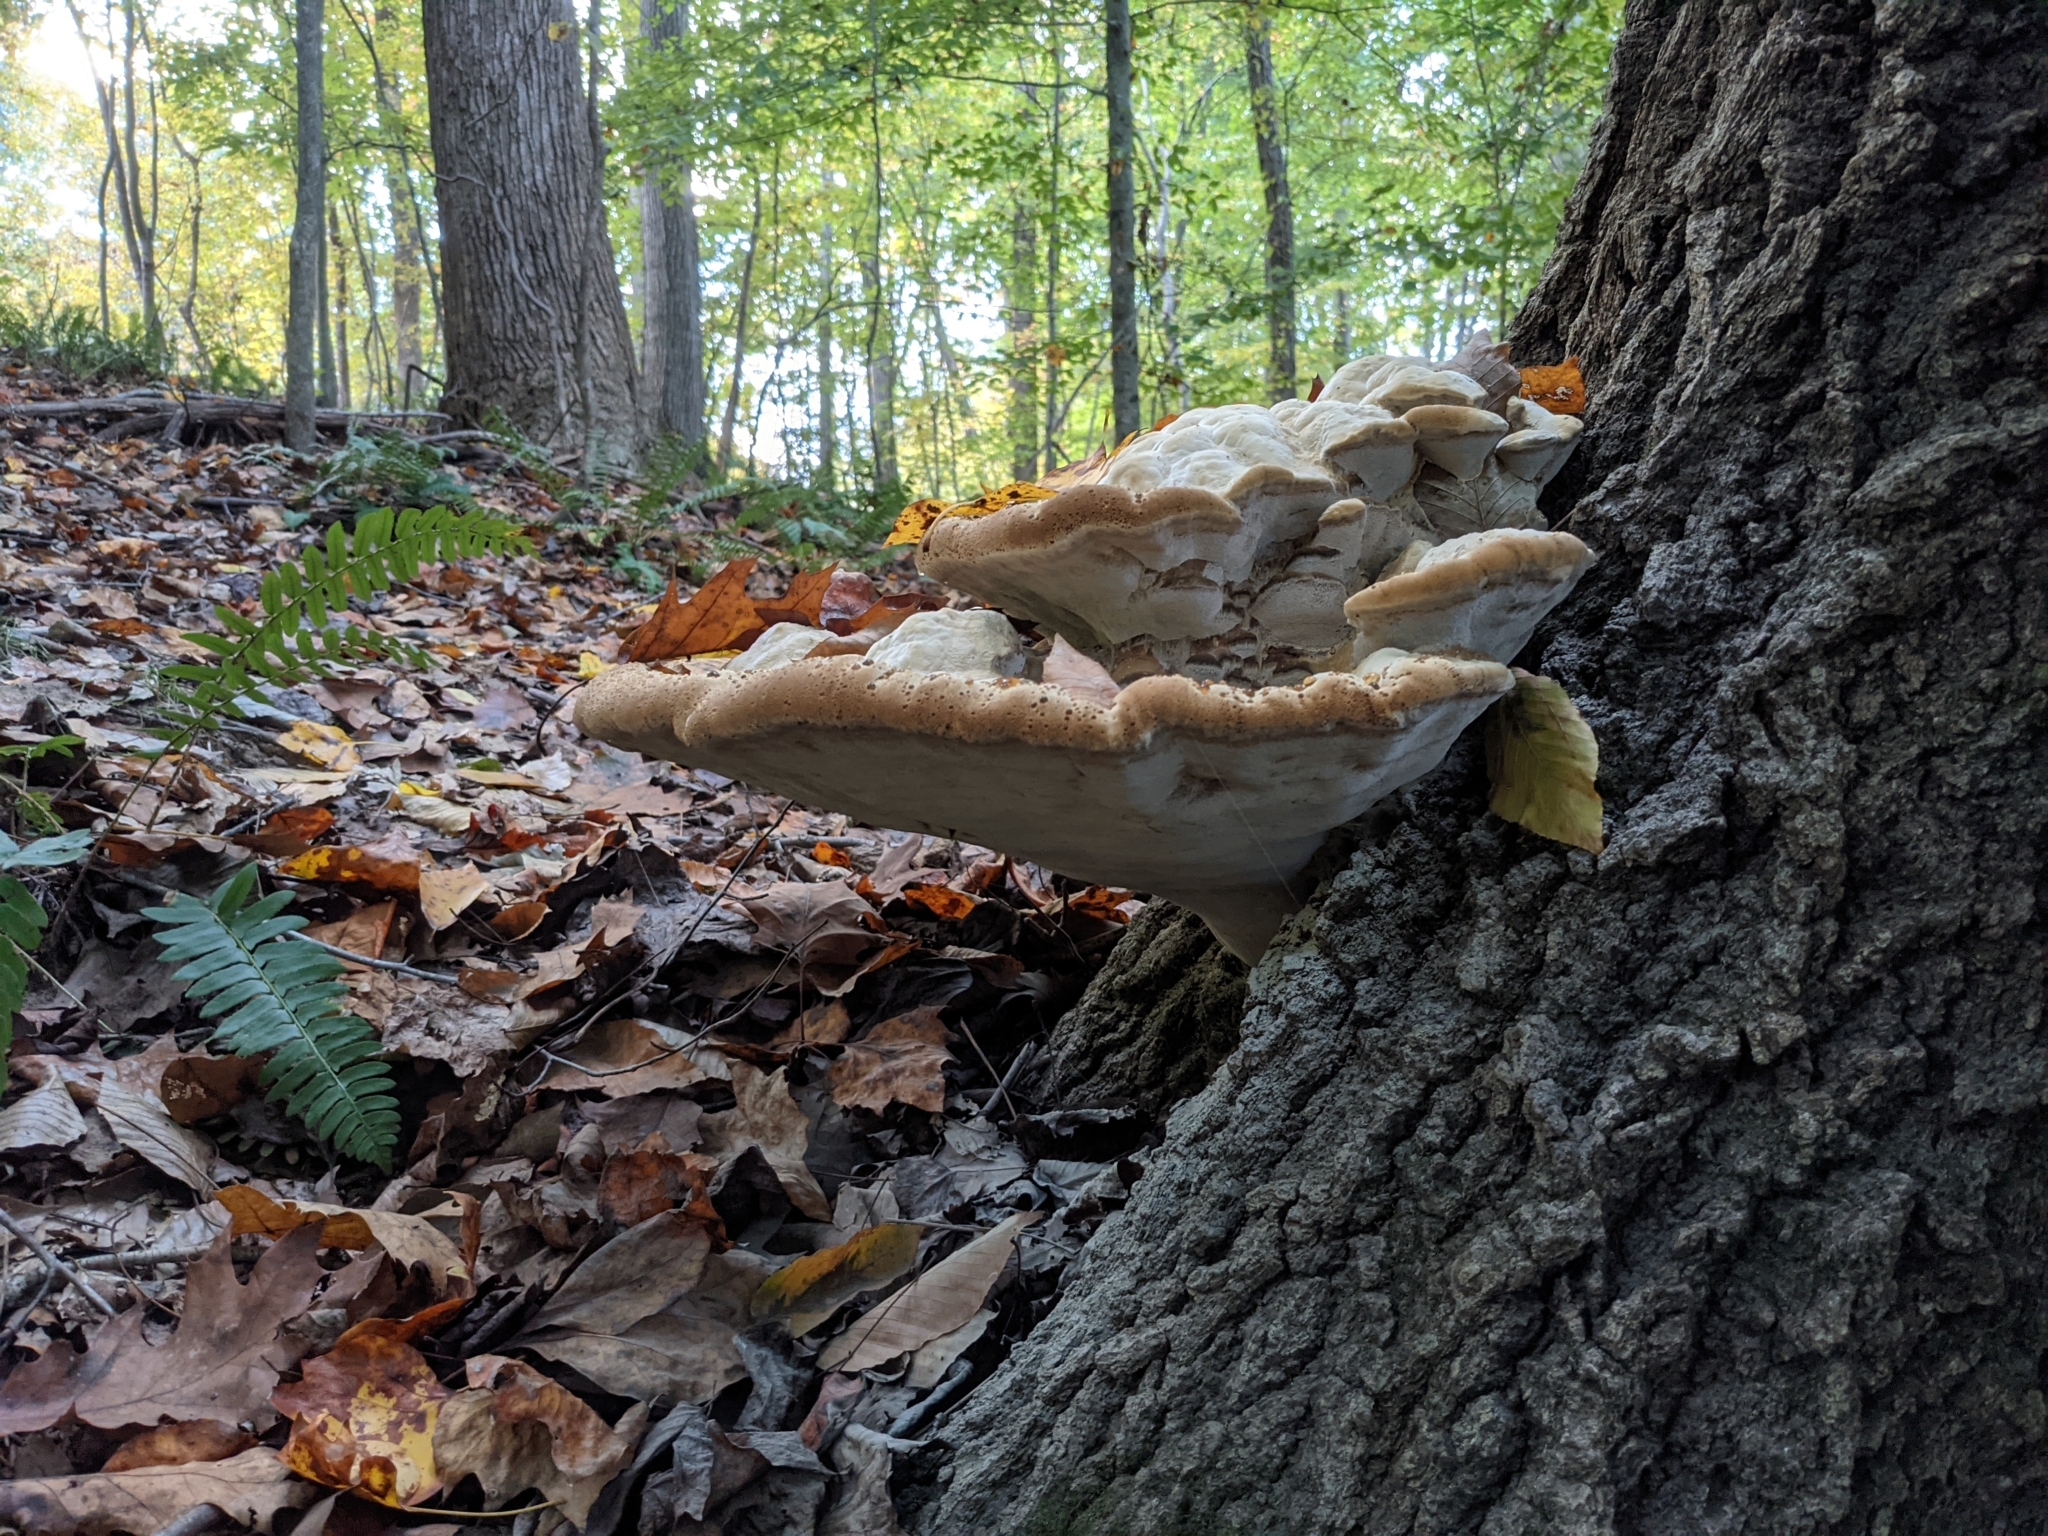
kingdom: Fungi
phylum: Basidiomycota
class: Agaricomycetes
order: Hymenochaetales
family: Hymenochaetaceae
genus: Pseudoinonotus
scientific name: Pseudoinonotus dryadeus
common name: Oak bracket
